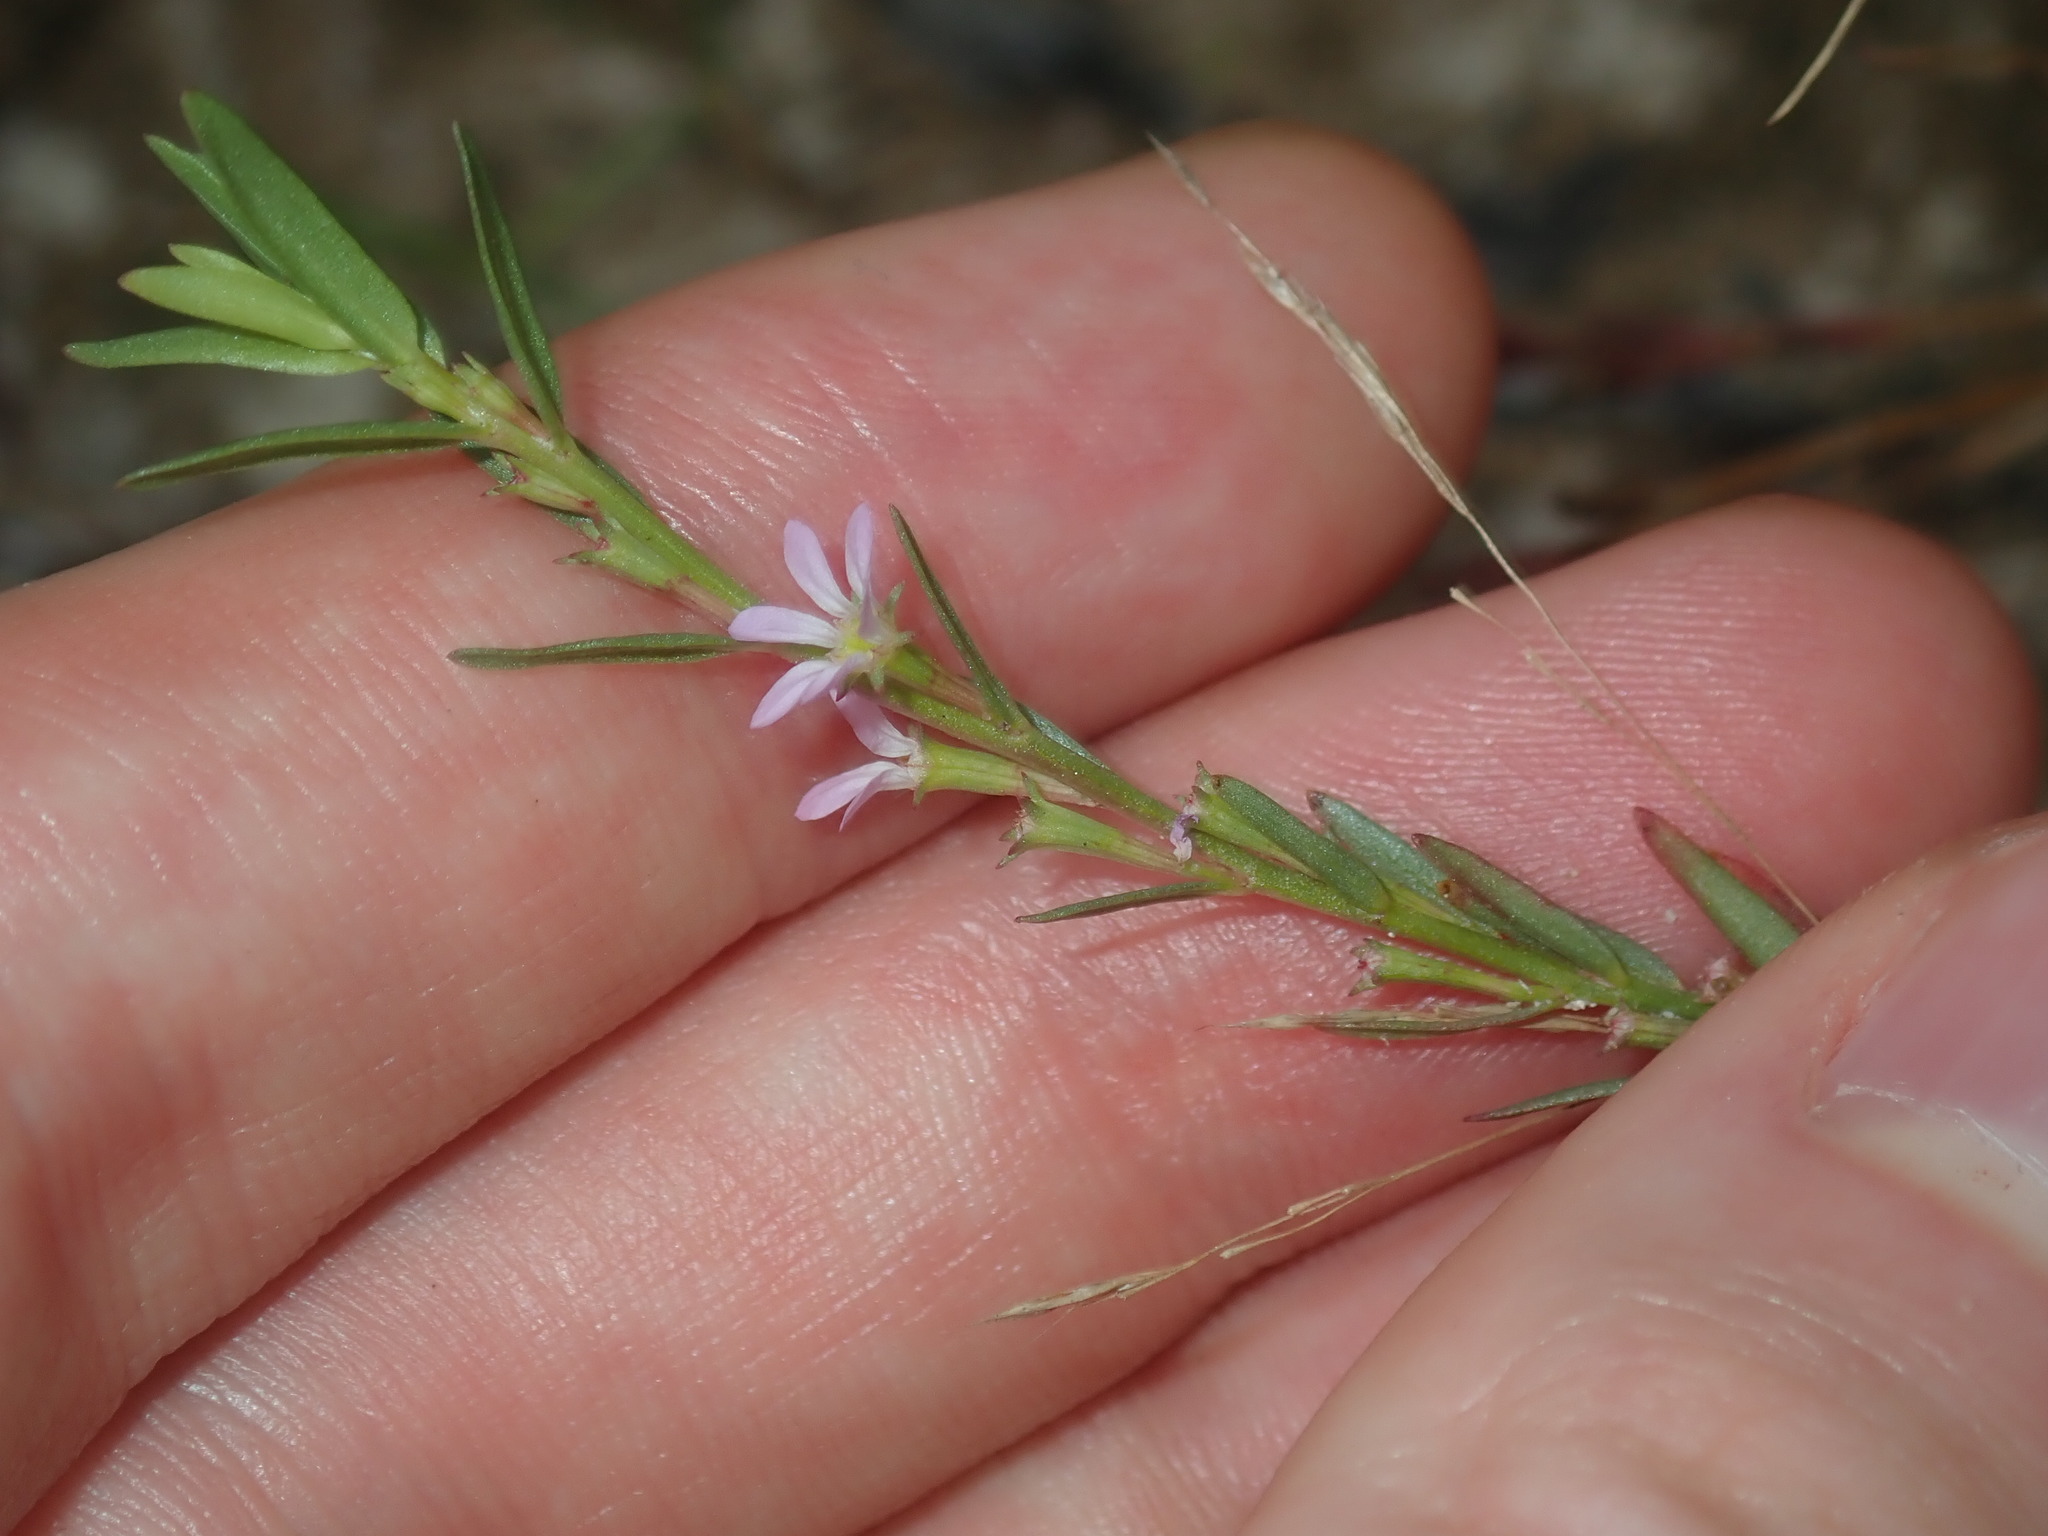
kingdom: Plantae
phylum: Tracheophyta
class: Magnoliopsida
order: Myrtales
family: Lythraceae
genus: Lythrum
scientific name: Lythrum hyssopifolia
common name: Grass-poly
